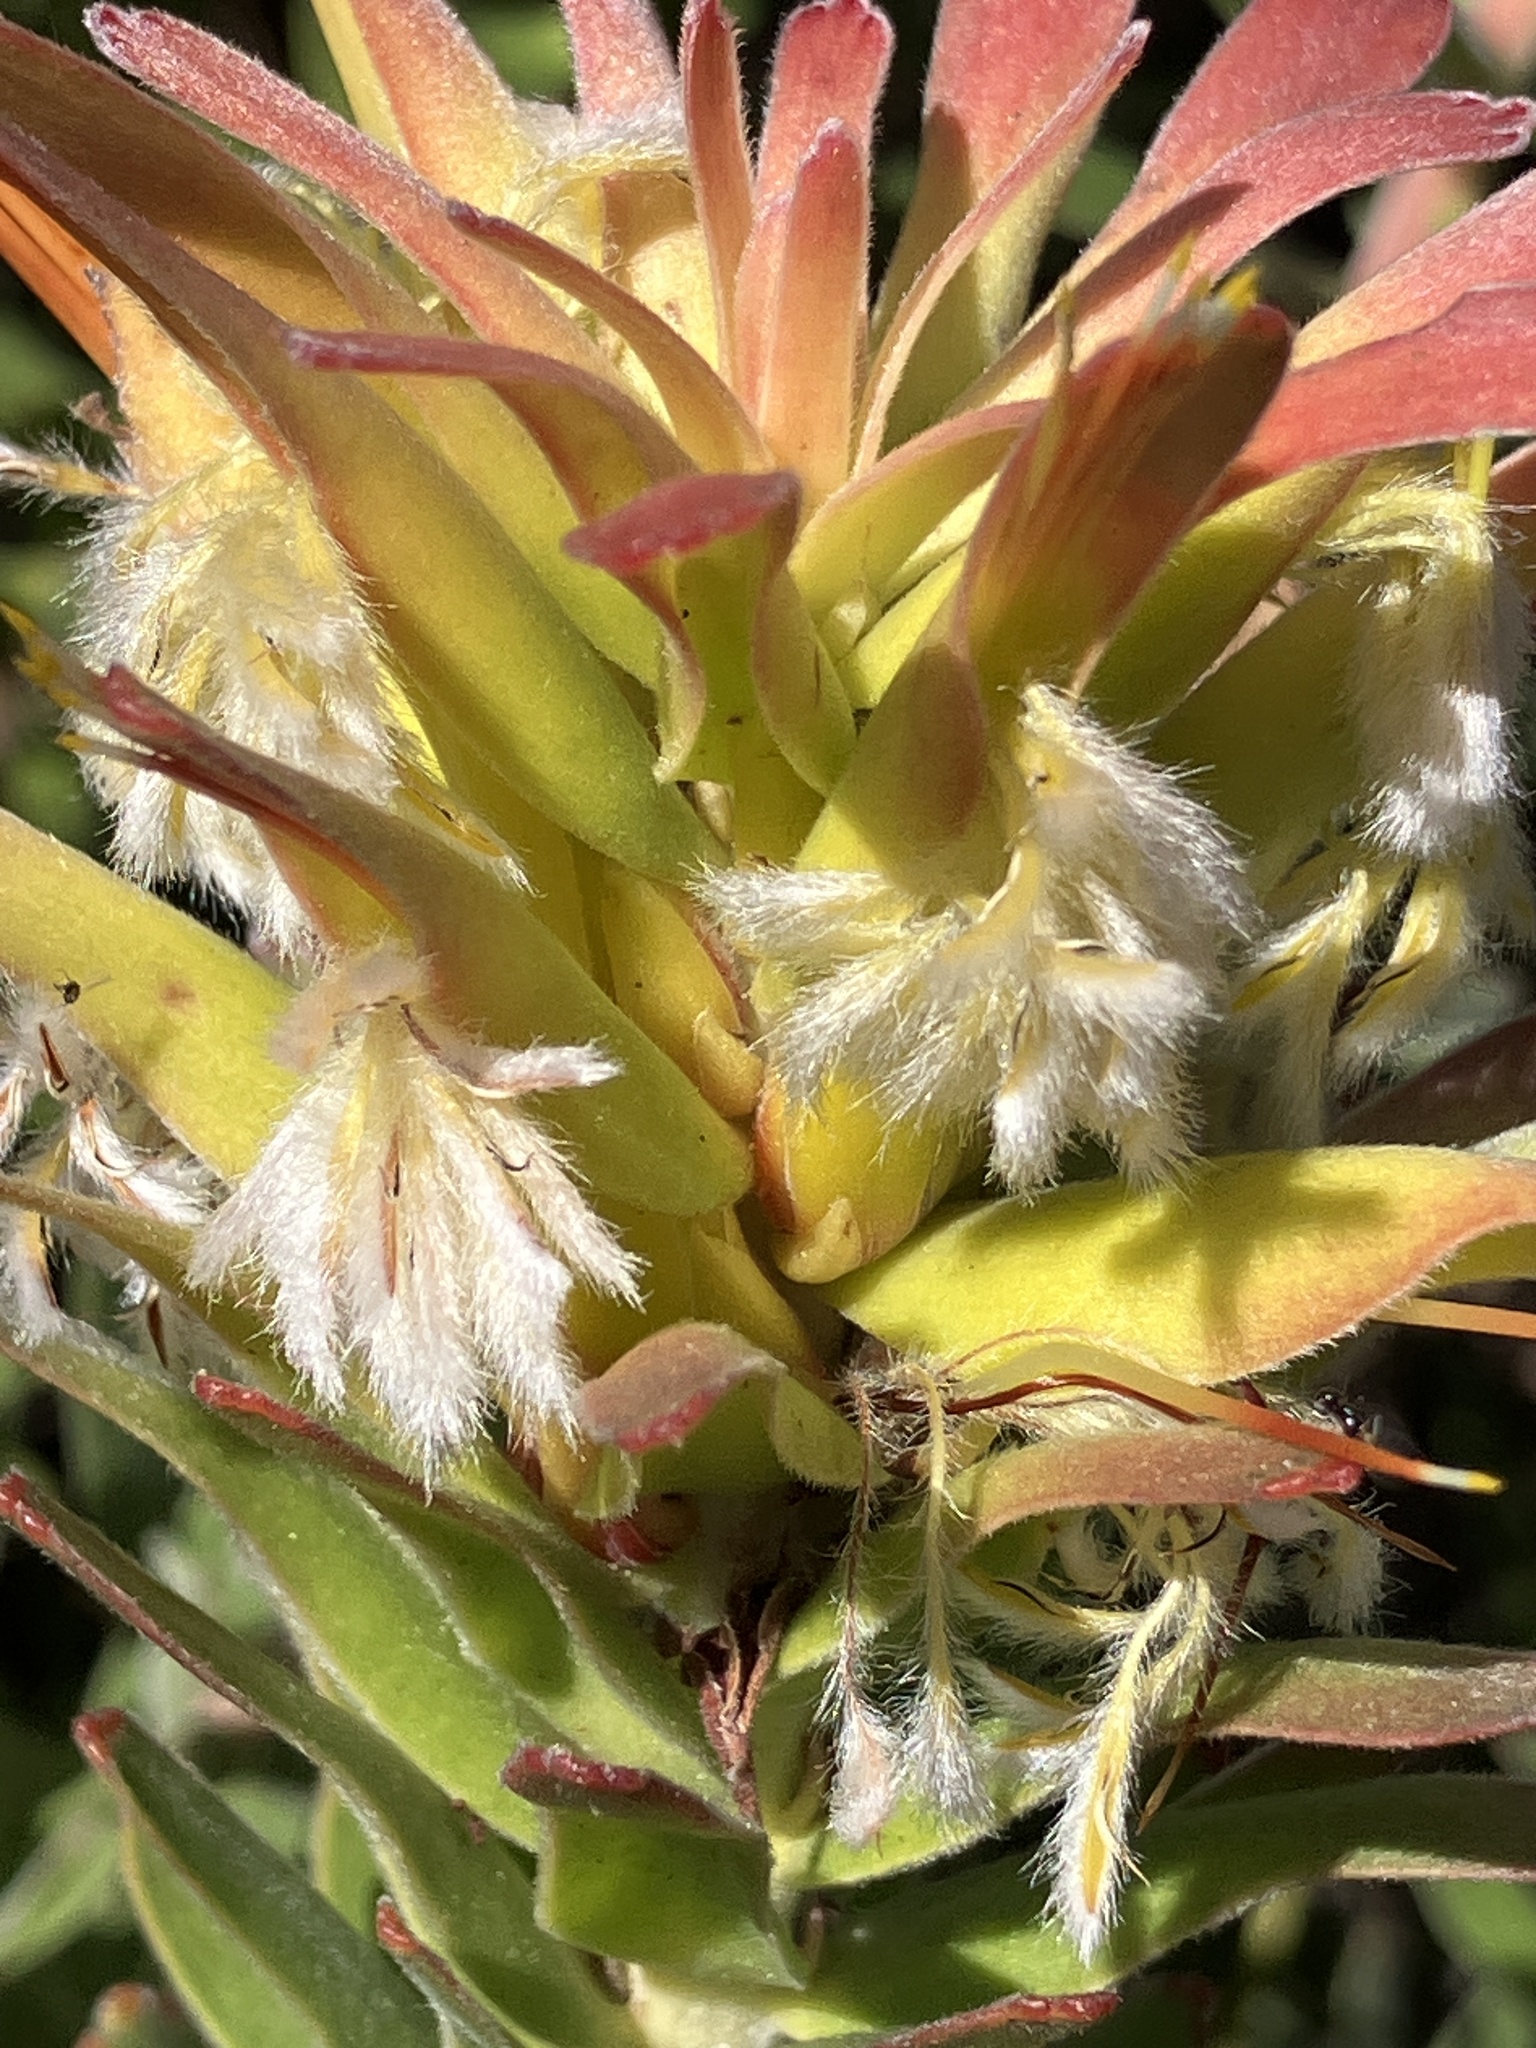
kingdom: Plantae
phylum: Tracheophyta
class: Magnoliopsida
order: Proteales
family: Proteaceae
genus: Mimetes
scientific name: Mimetes cucullatus
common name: Common pagoda
